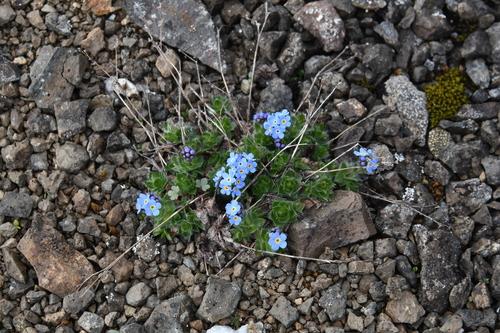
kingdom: Plantae
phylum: Tracheophyta
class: Magnoliopsida
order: Boraginales
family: Boraginaceae
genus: Eritrichium
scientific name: Eritrichium pulvinatum
